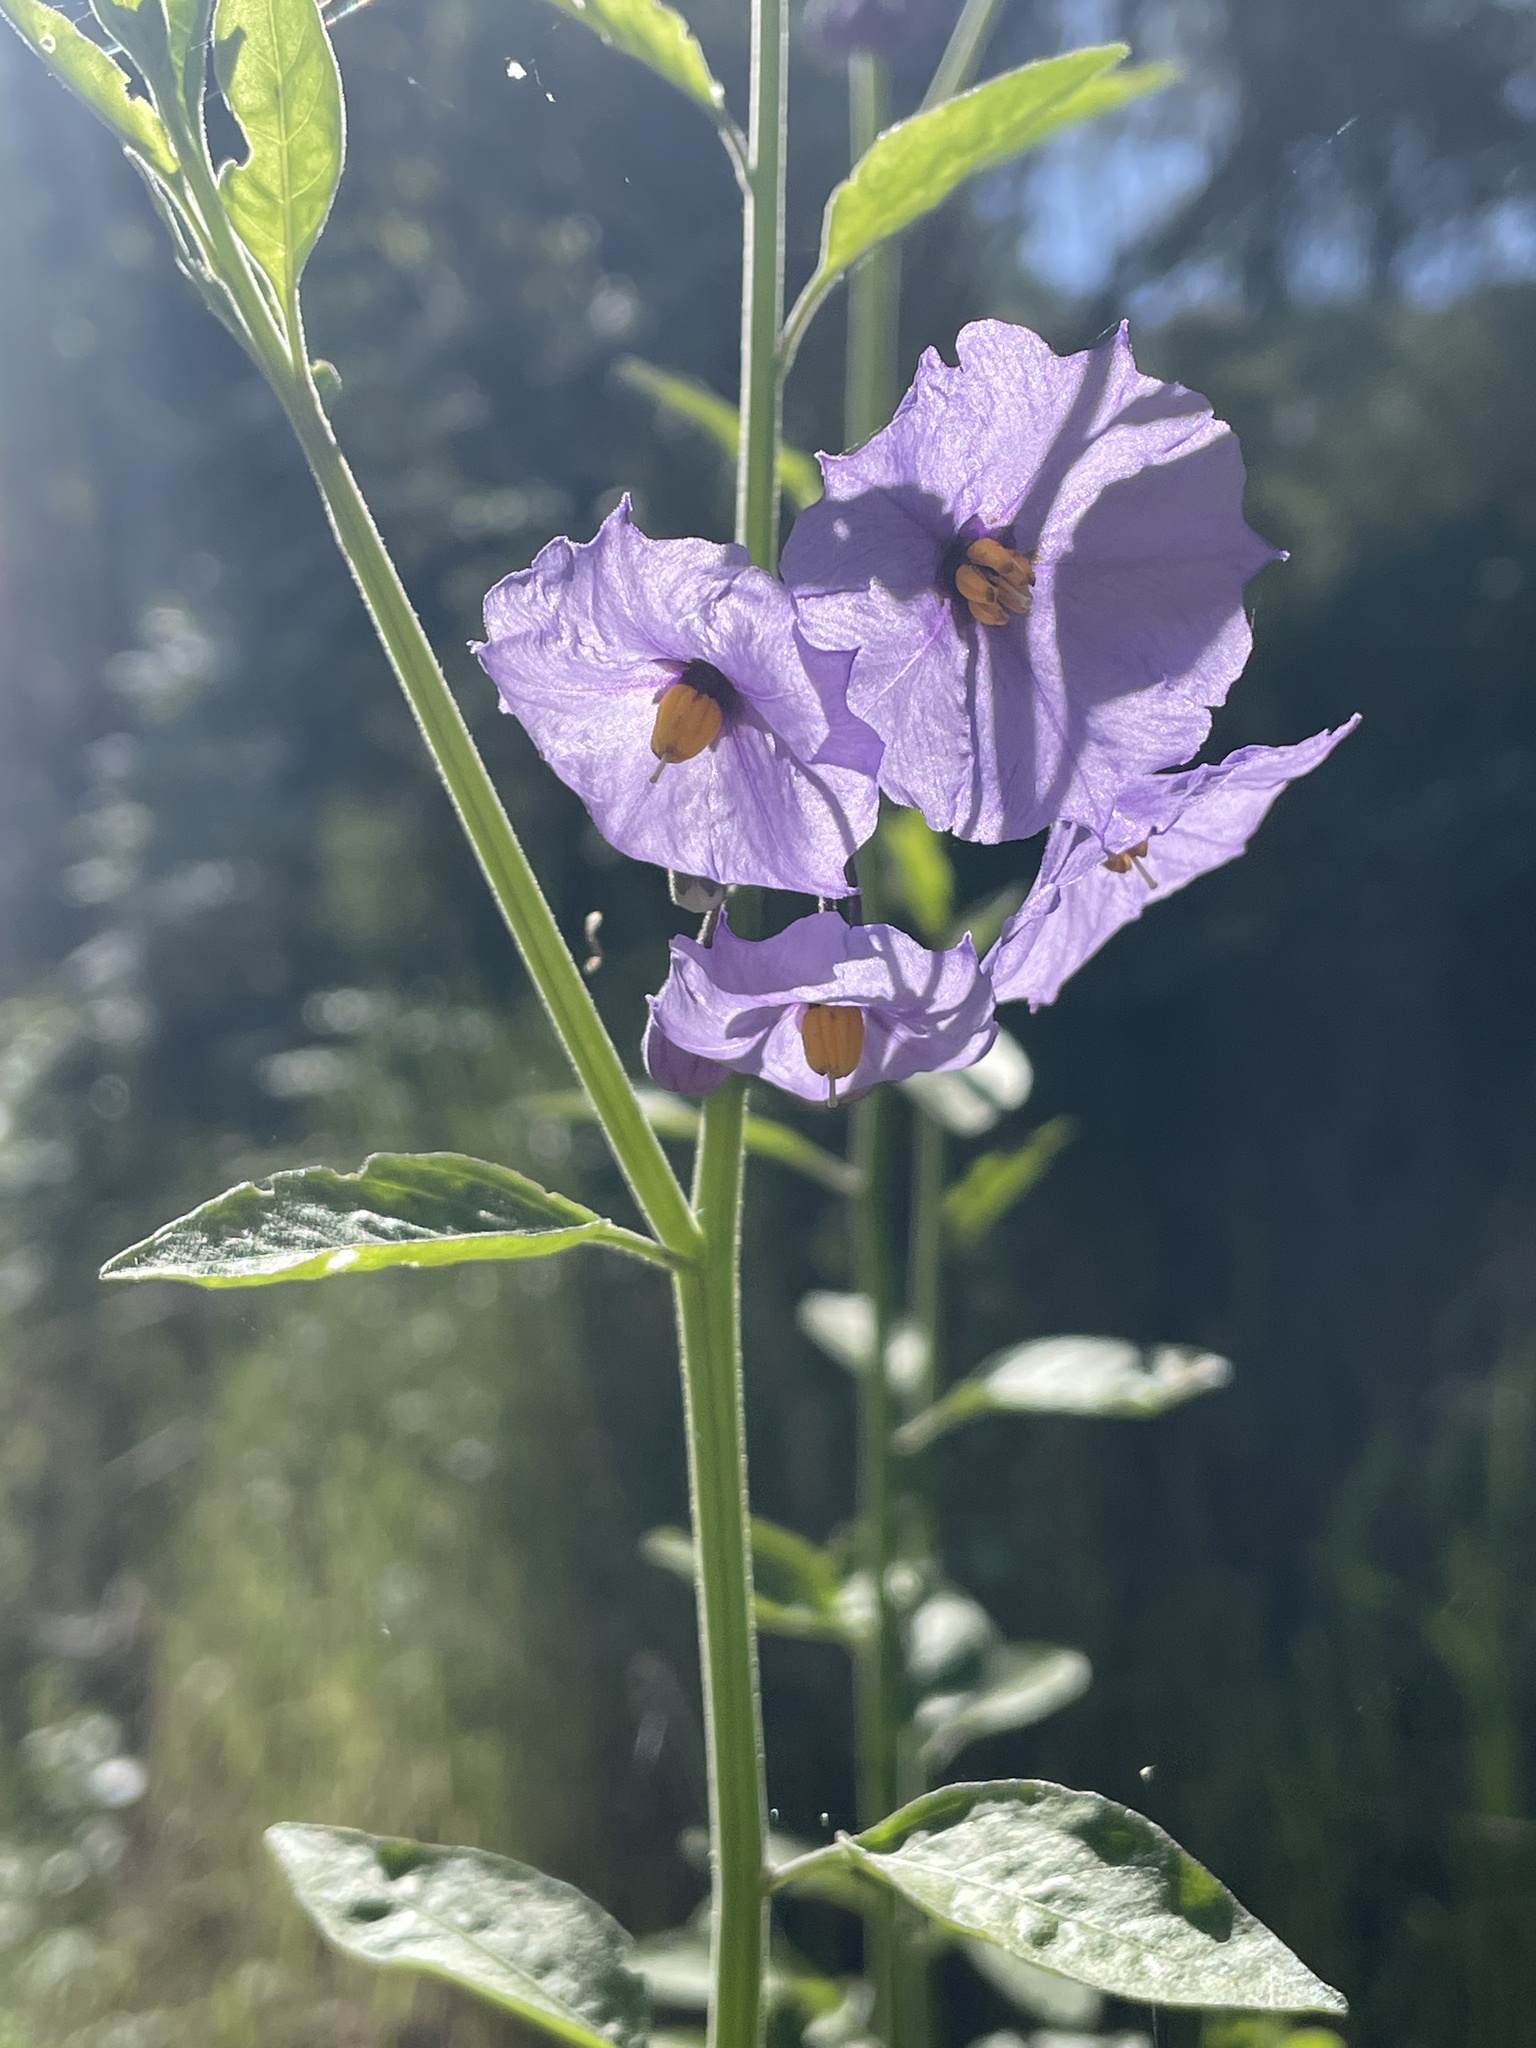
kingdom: Plantae
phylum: Tracheophyta
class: Magnoliopsida
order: Solanales
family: Solanaceae
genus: Solanum
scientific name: Solanum umbelliferum
